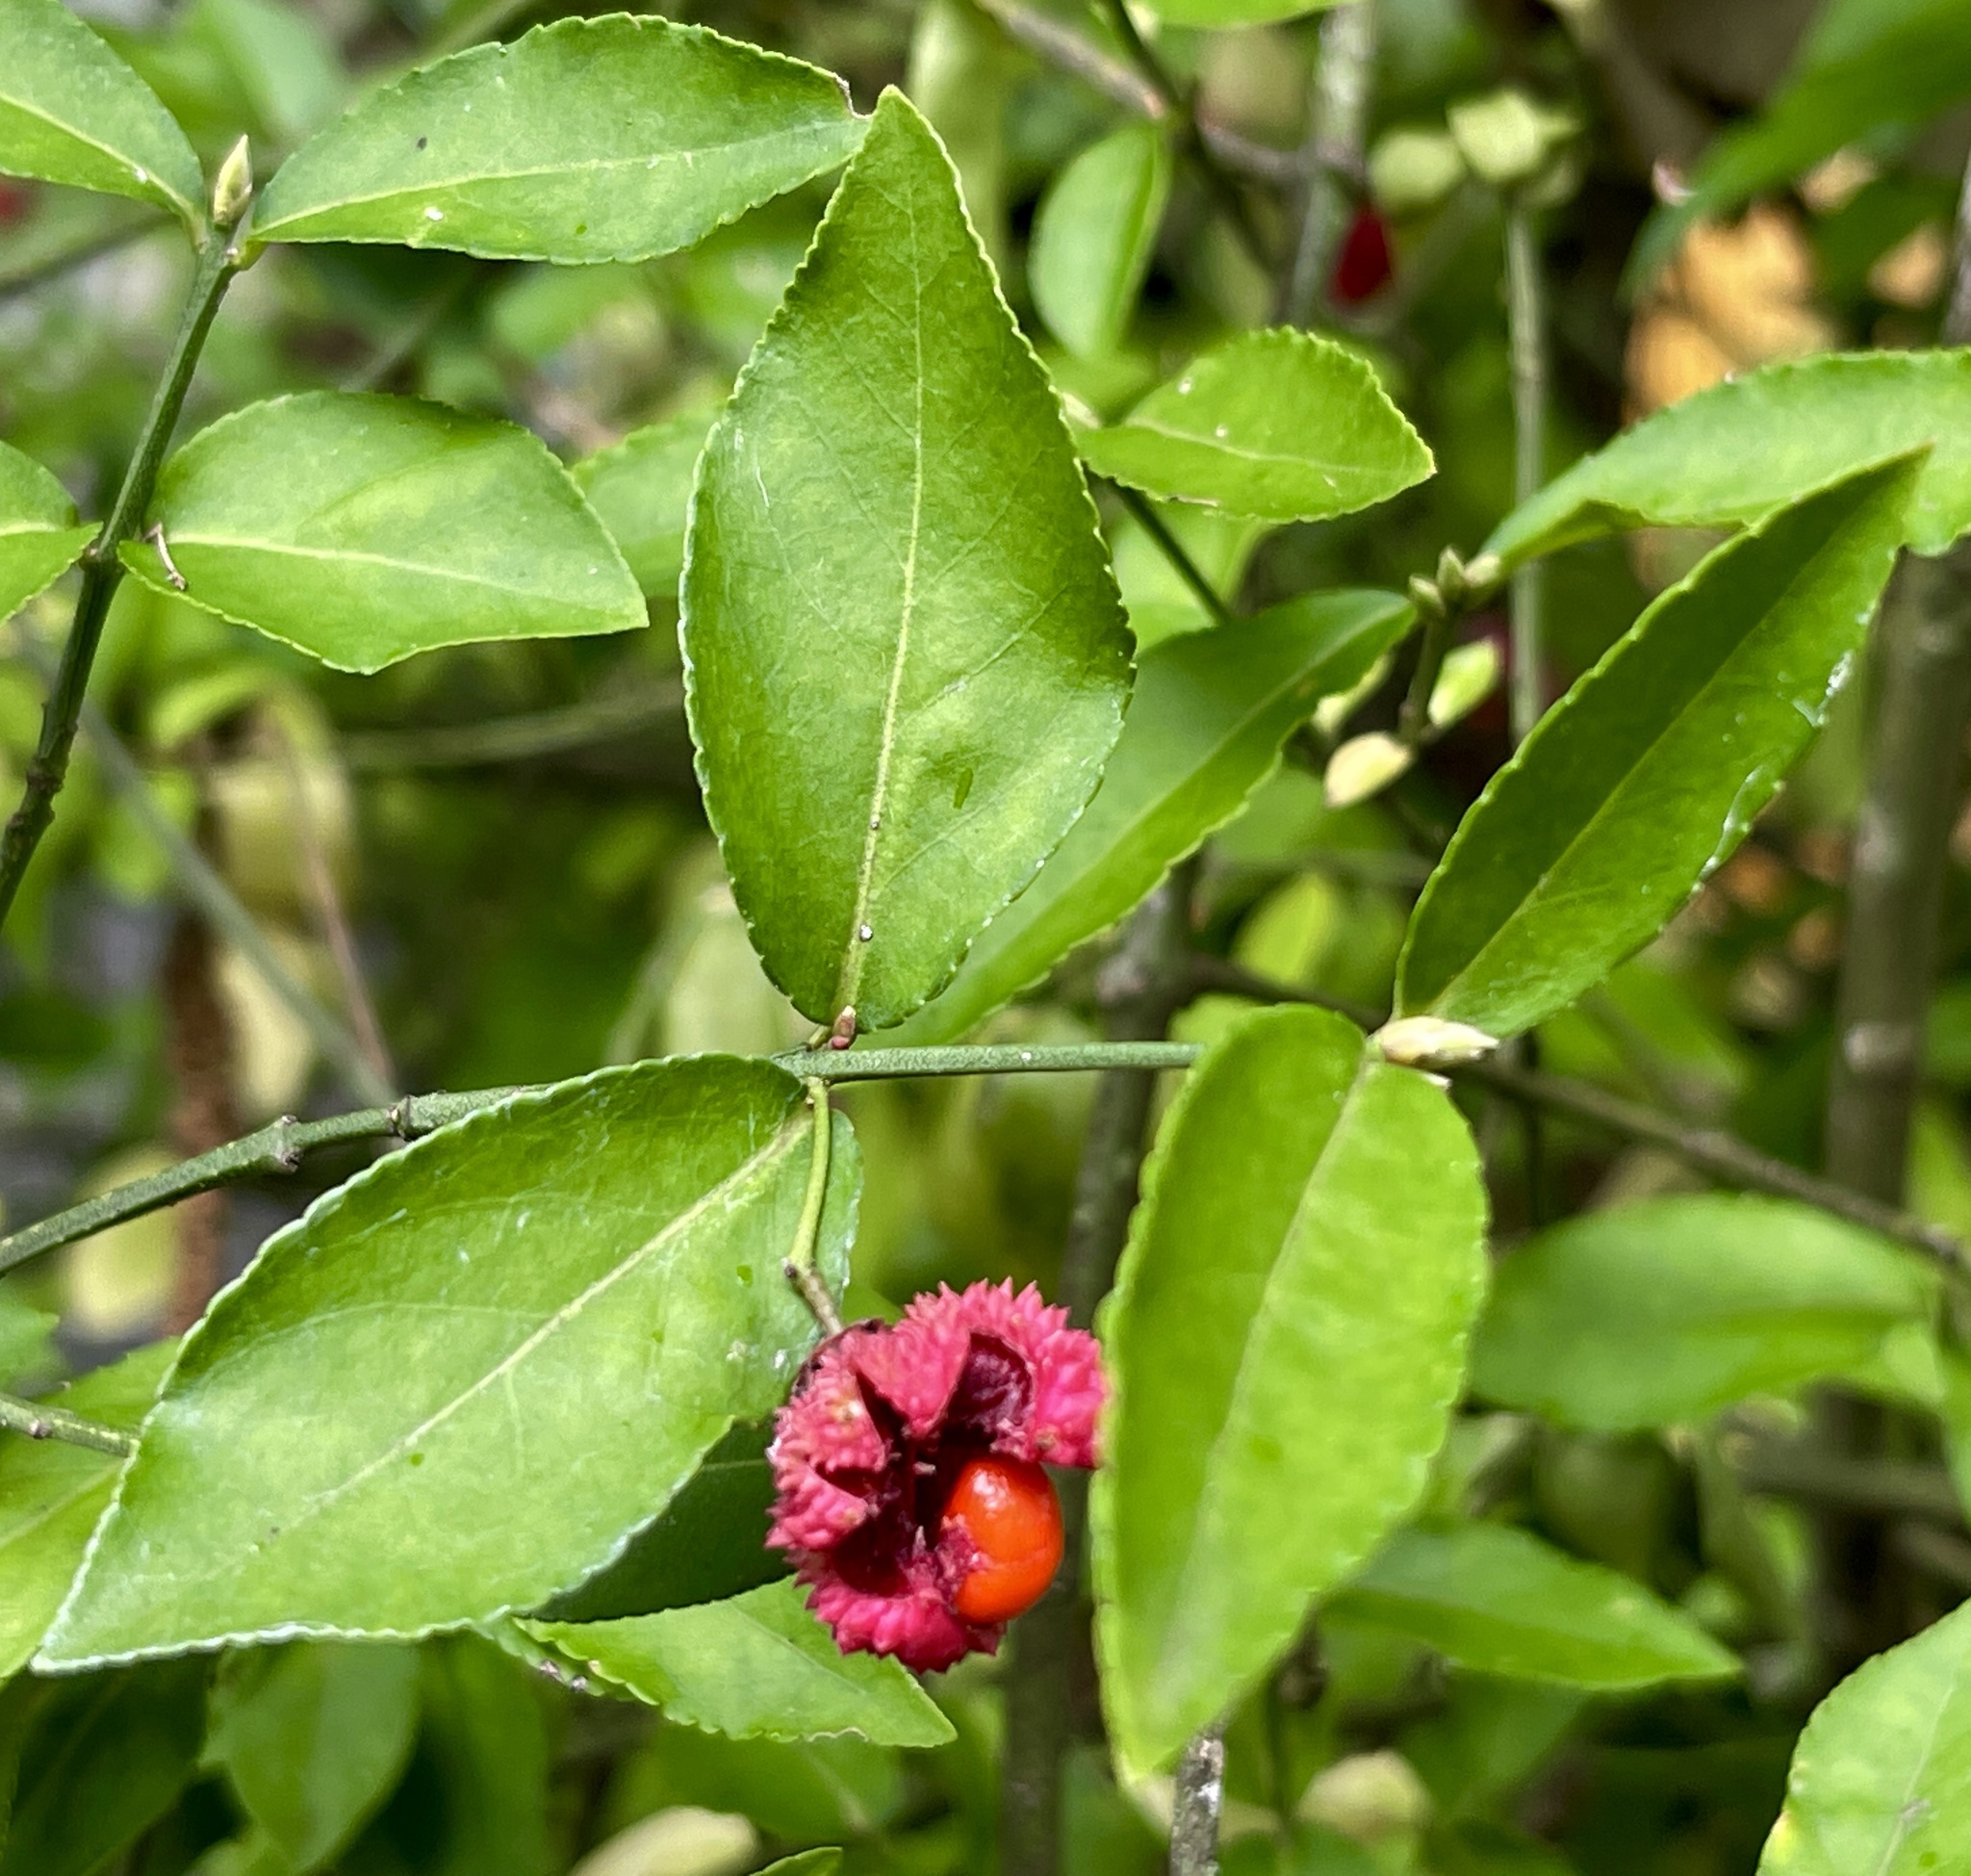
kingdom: Plantae
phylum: Tracheophyta
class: Magnoliopsida
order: Celastrales
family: Celastraceae
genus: Euonymus
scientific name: Euonymus americanus
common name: Bursting-heart
